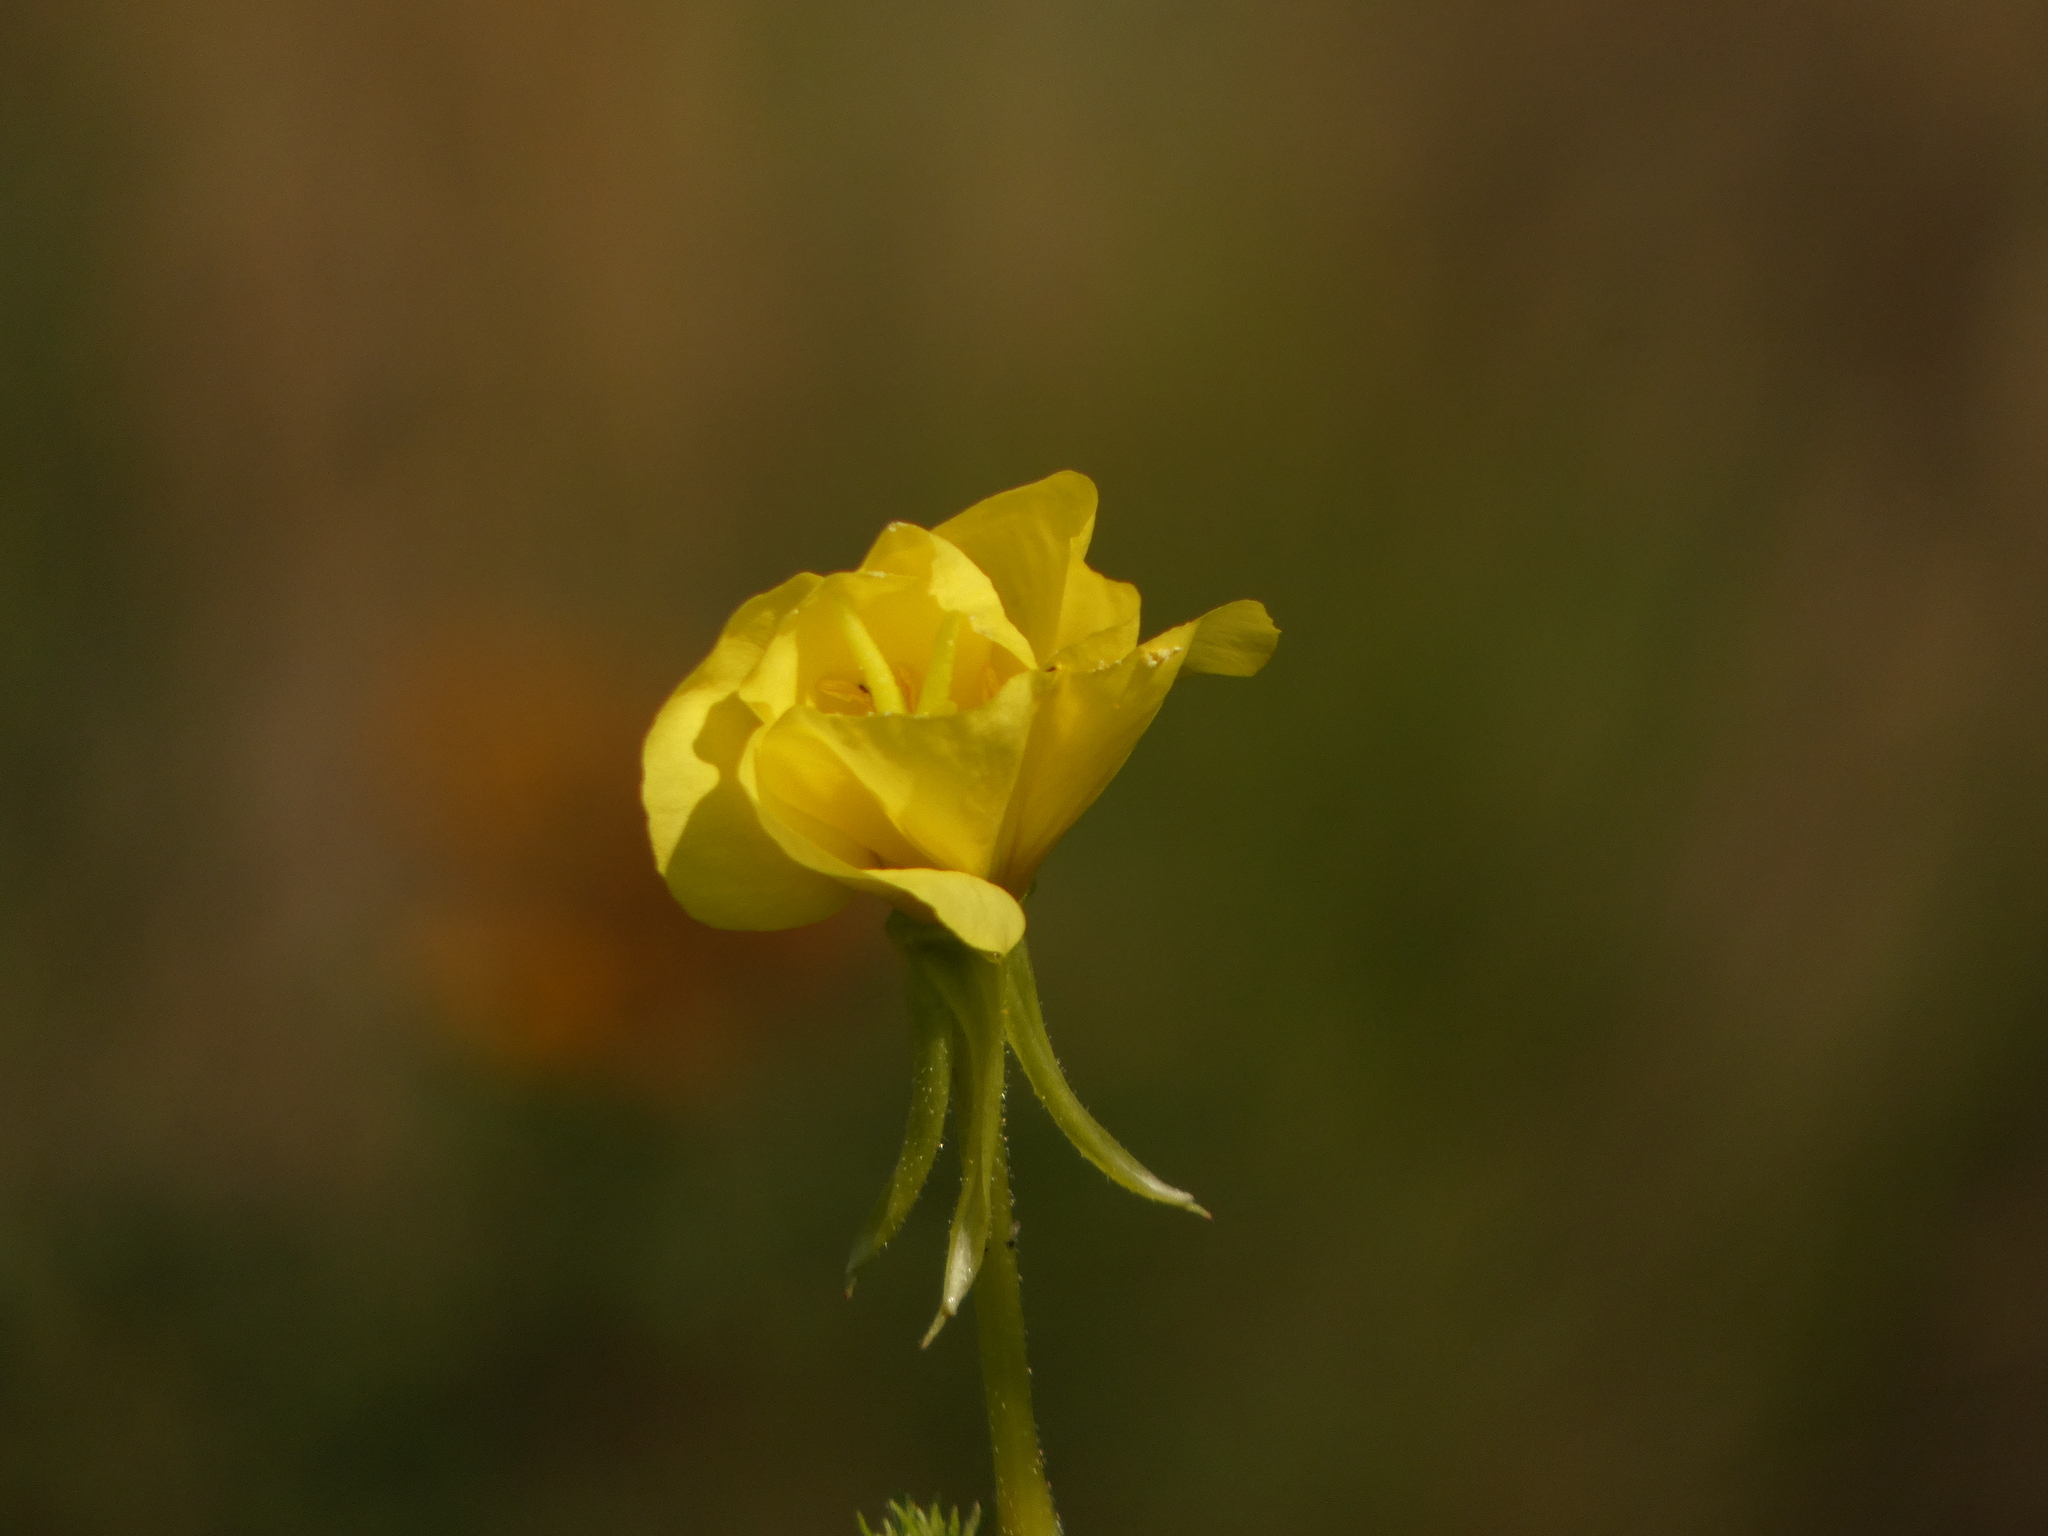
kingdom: Plantae
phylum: Tracheophyta
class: Magnoliopsida
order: Myrtales
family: Onagraceae
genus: Oenothera
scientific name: Oenothera biennis
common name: Common evening-primrose
